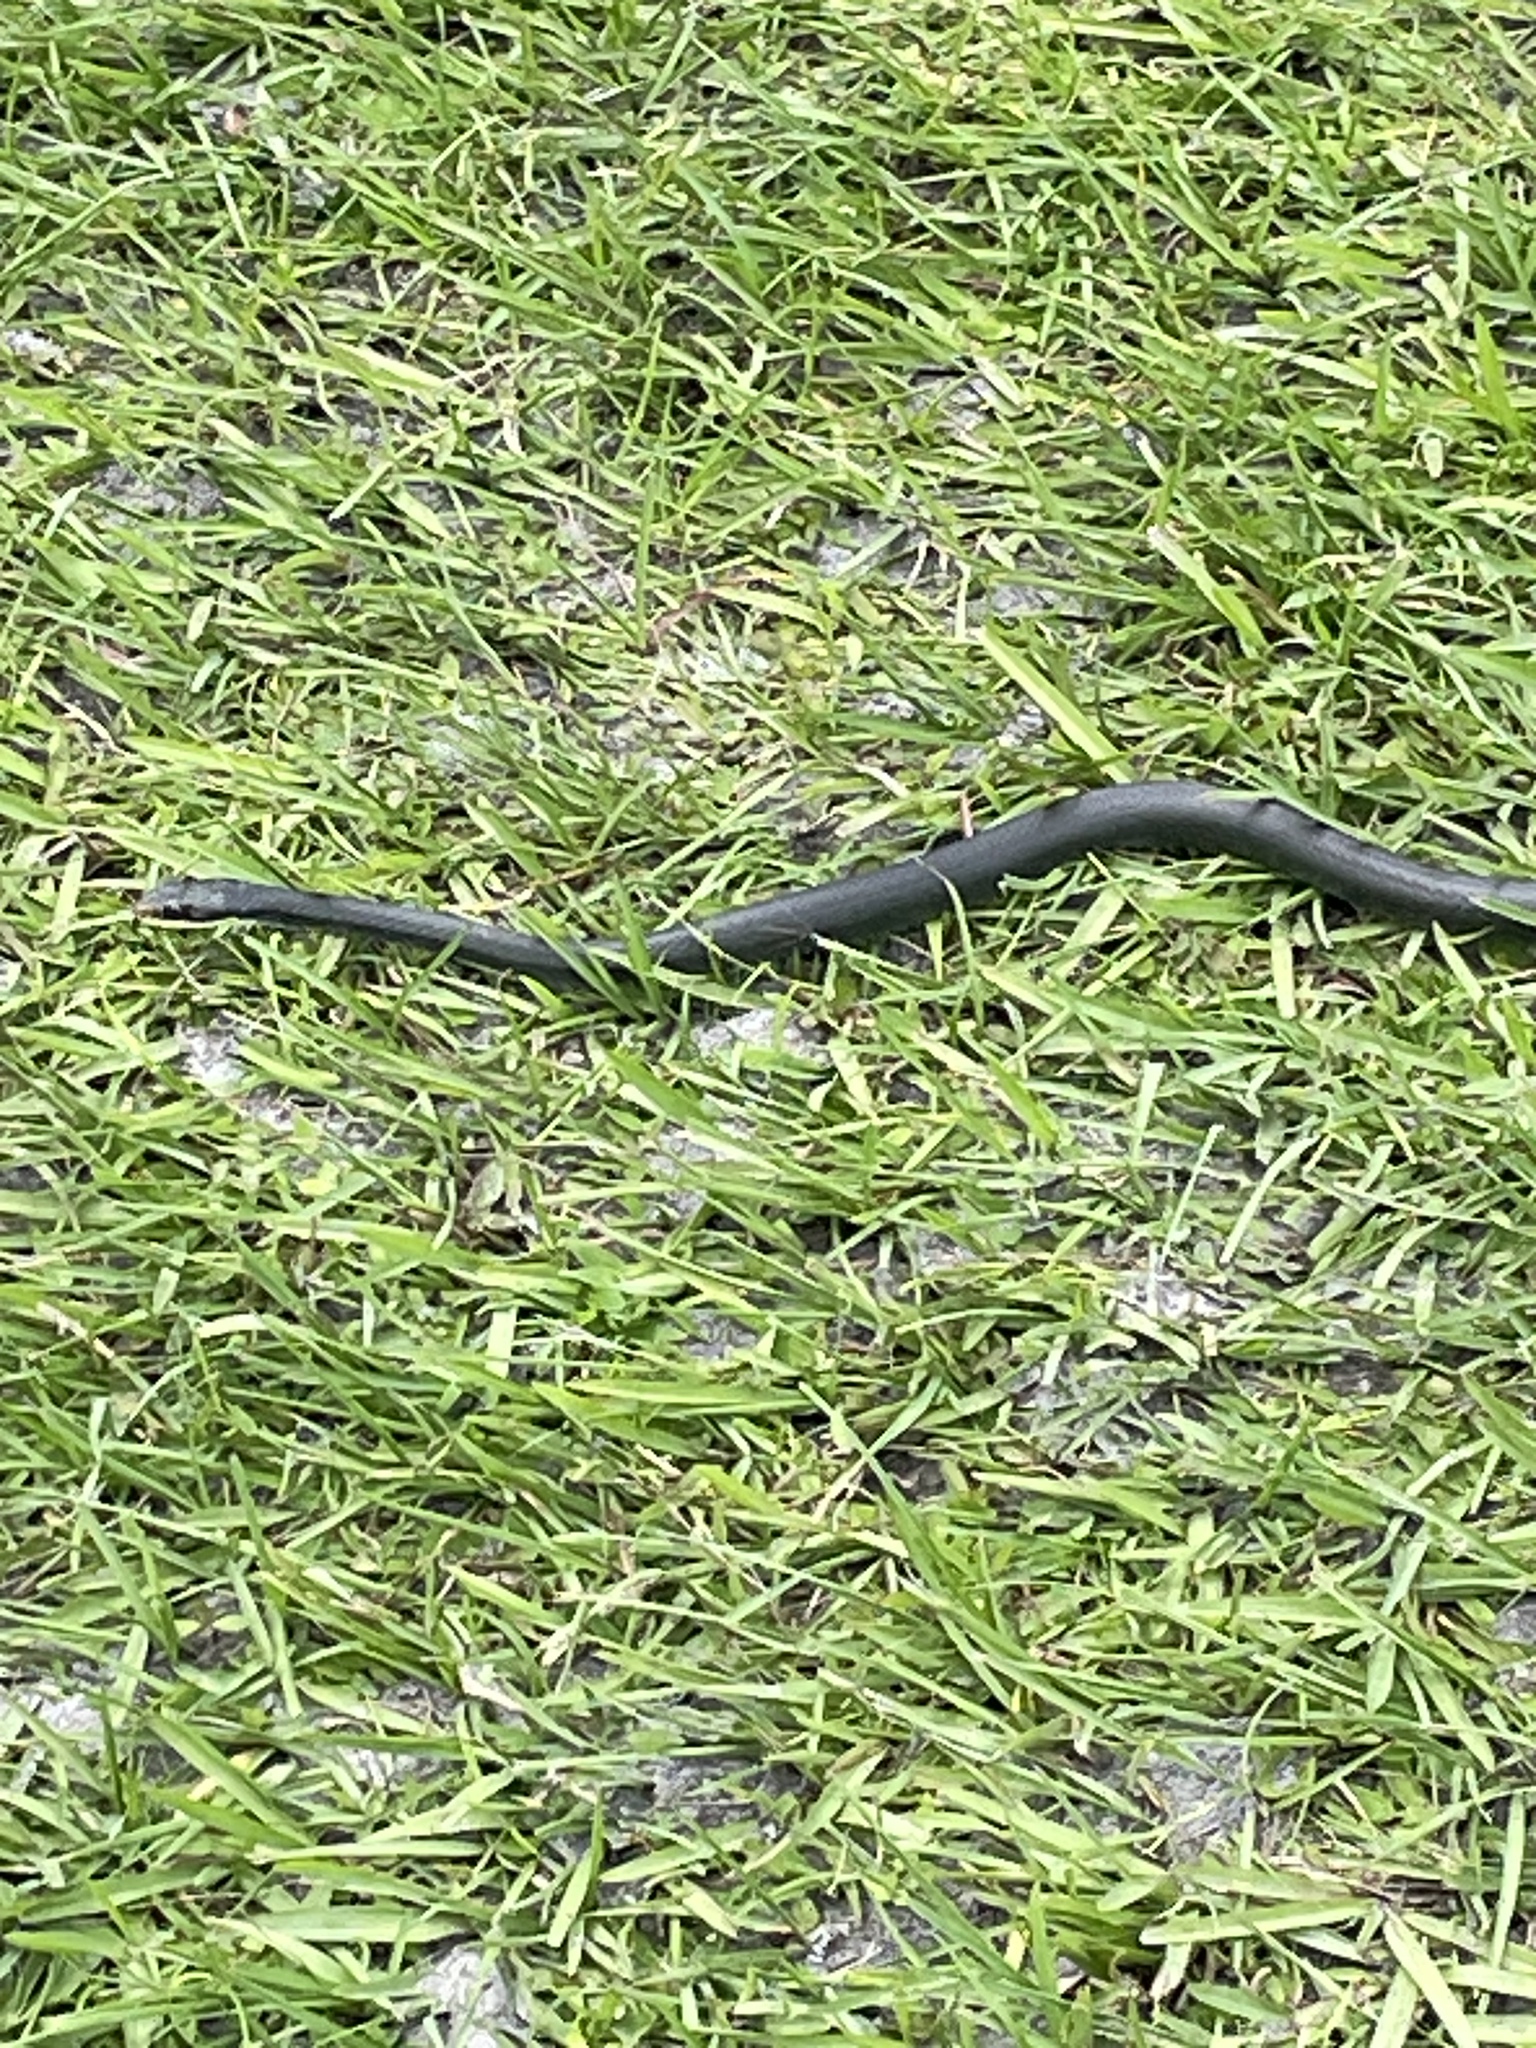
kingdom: Animalia
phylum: Chordata
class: Squamata
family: Colubridae
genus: Coluber
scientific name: Coluber constrictor
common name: Eastern racer
